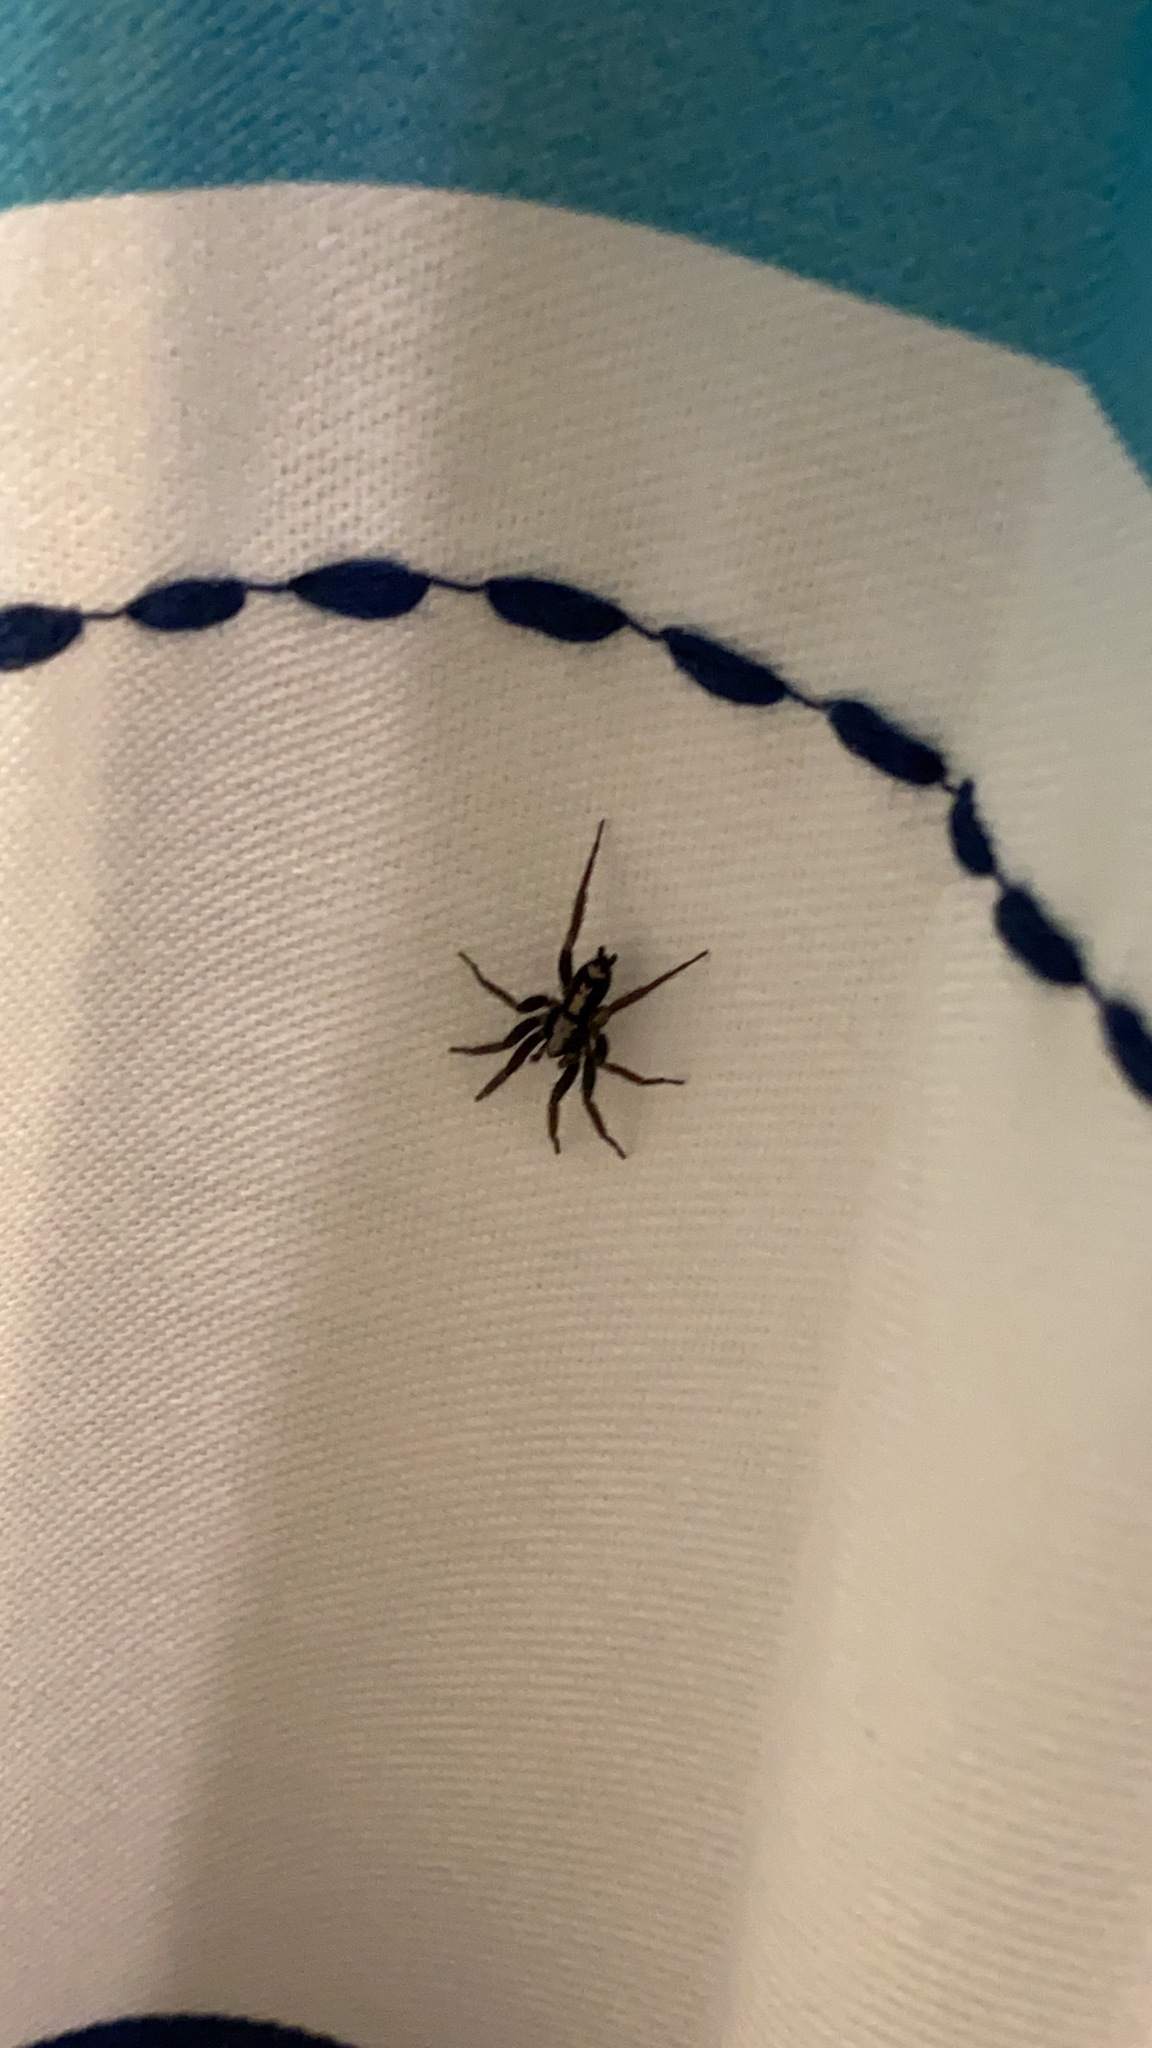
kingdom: Animalia
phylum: Arthropoda
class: Arachnida
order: Araneae
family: Gnaphosidae
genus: Herpyllus
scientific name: Herpyllus ecclesiasticus
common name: Eastern parson spider
